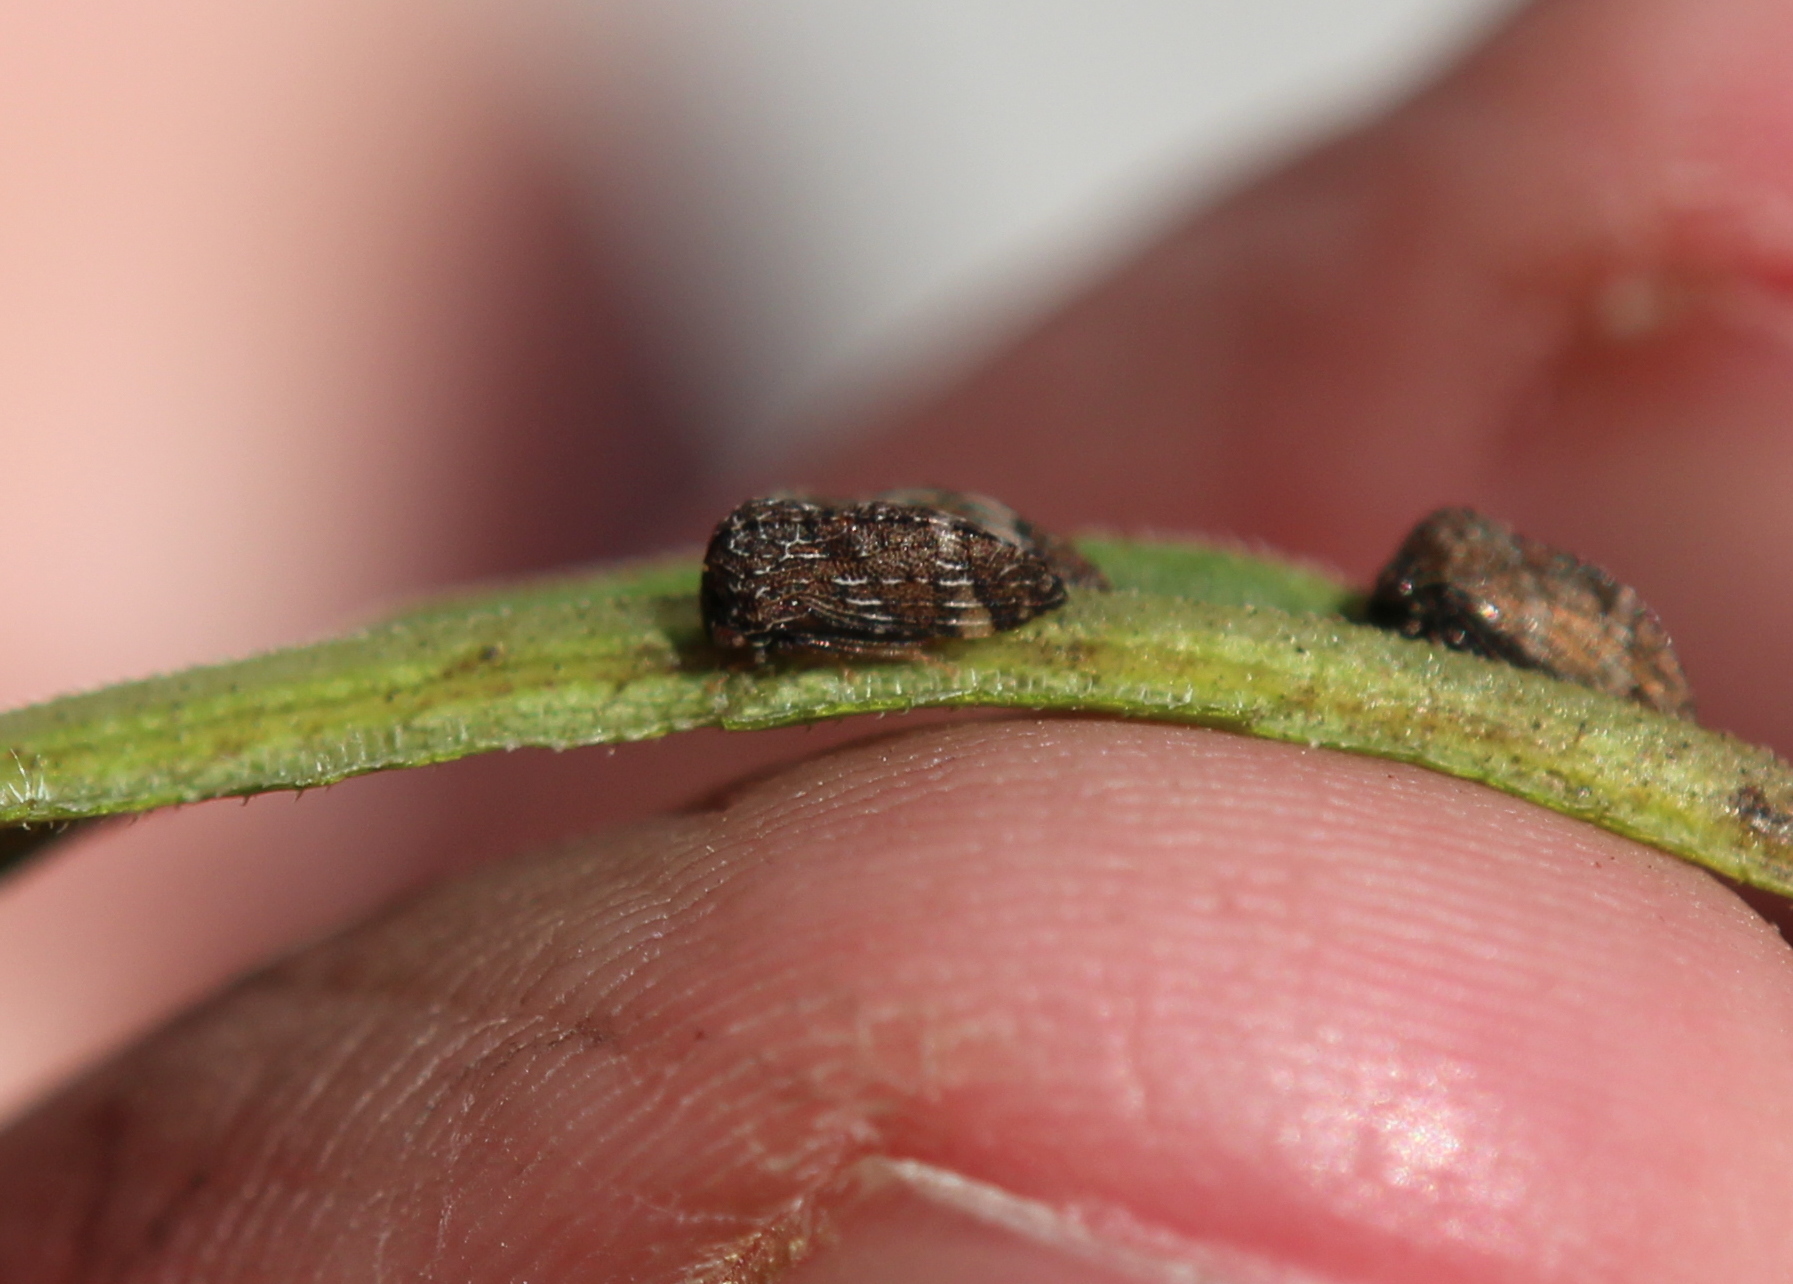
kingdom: Animalia
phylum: Arthropoda
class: Insecta
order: Hemiptera
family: Membracidae
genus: Publilia
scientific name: Publilia concava
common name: Aster treehopper
